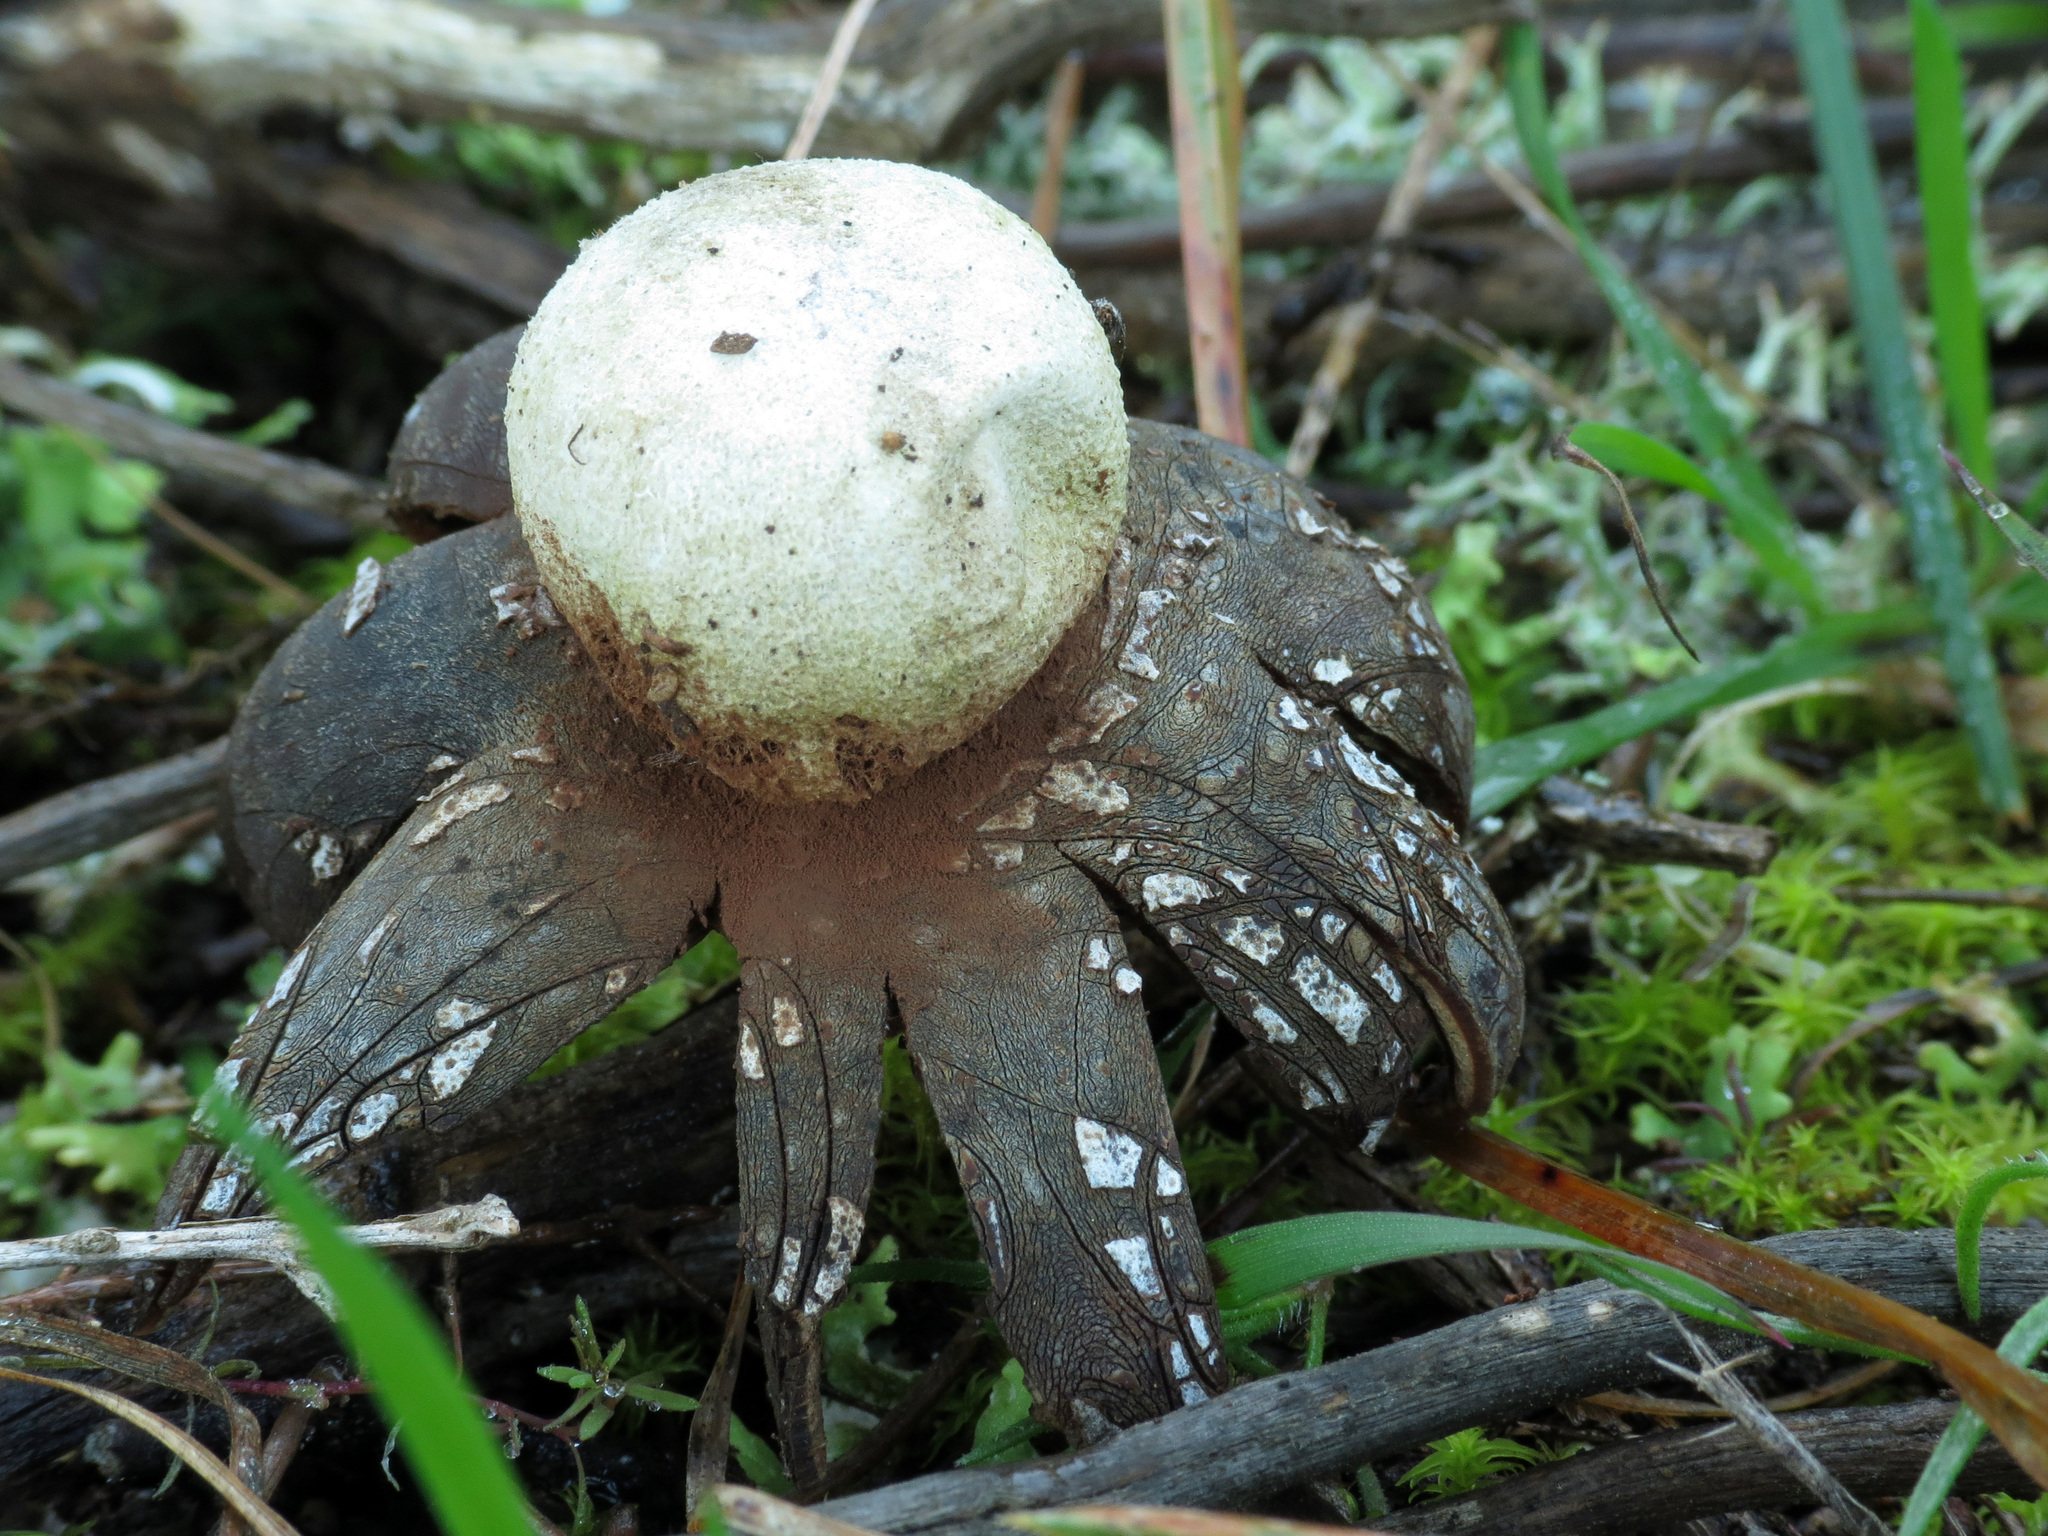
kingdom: Fungi
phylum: Basidiomycota
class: Agaricomycetes
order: Boletales
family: Diplocystidiaceae
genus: Astraeus
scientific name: Astraeus hygrometricus
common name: Barometer earthstar
